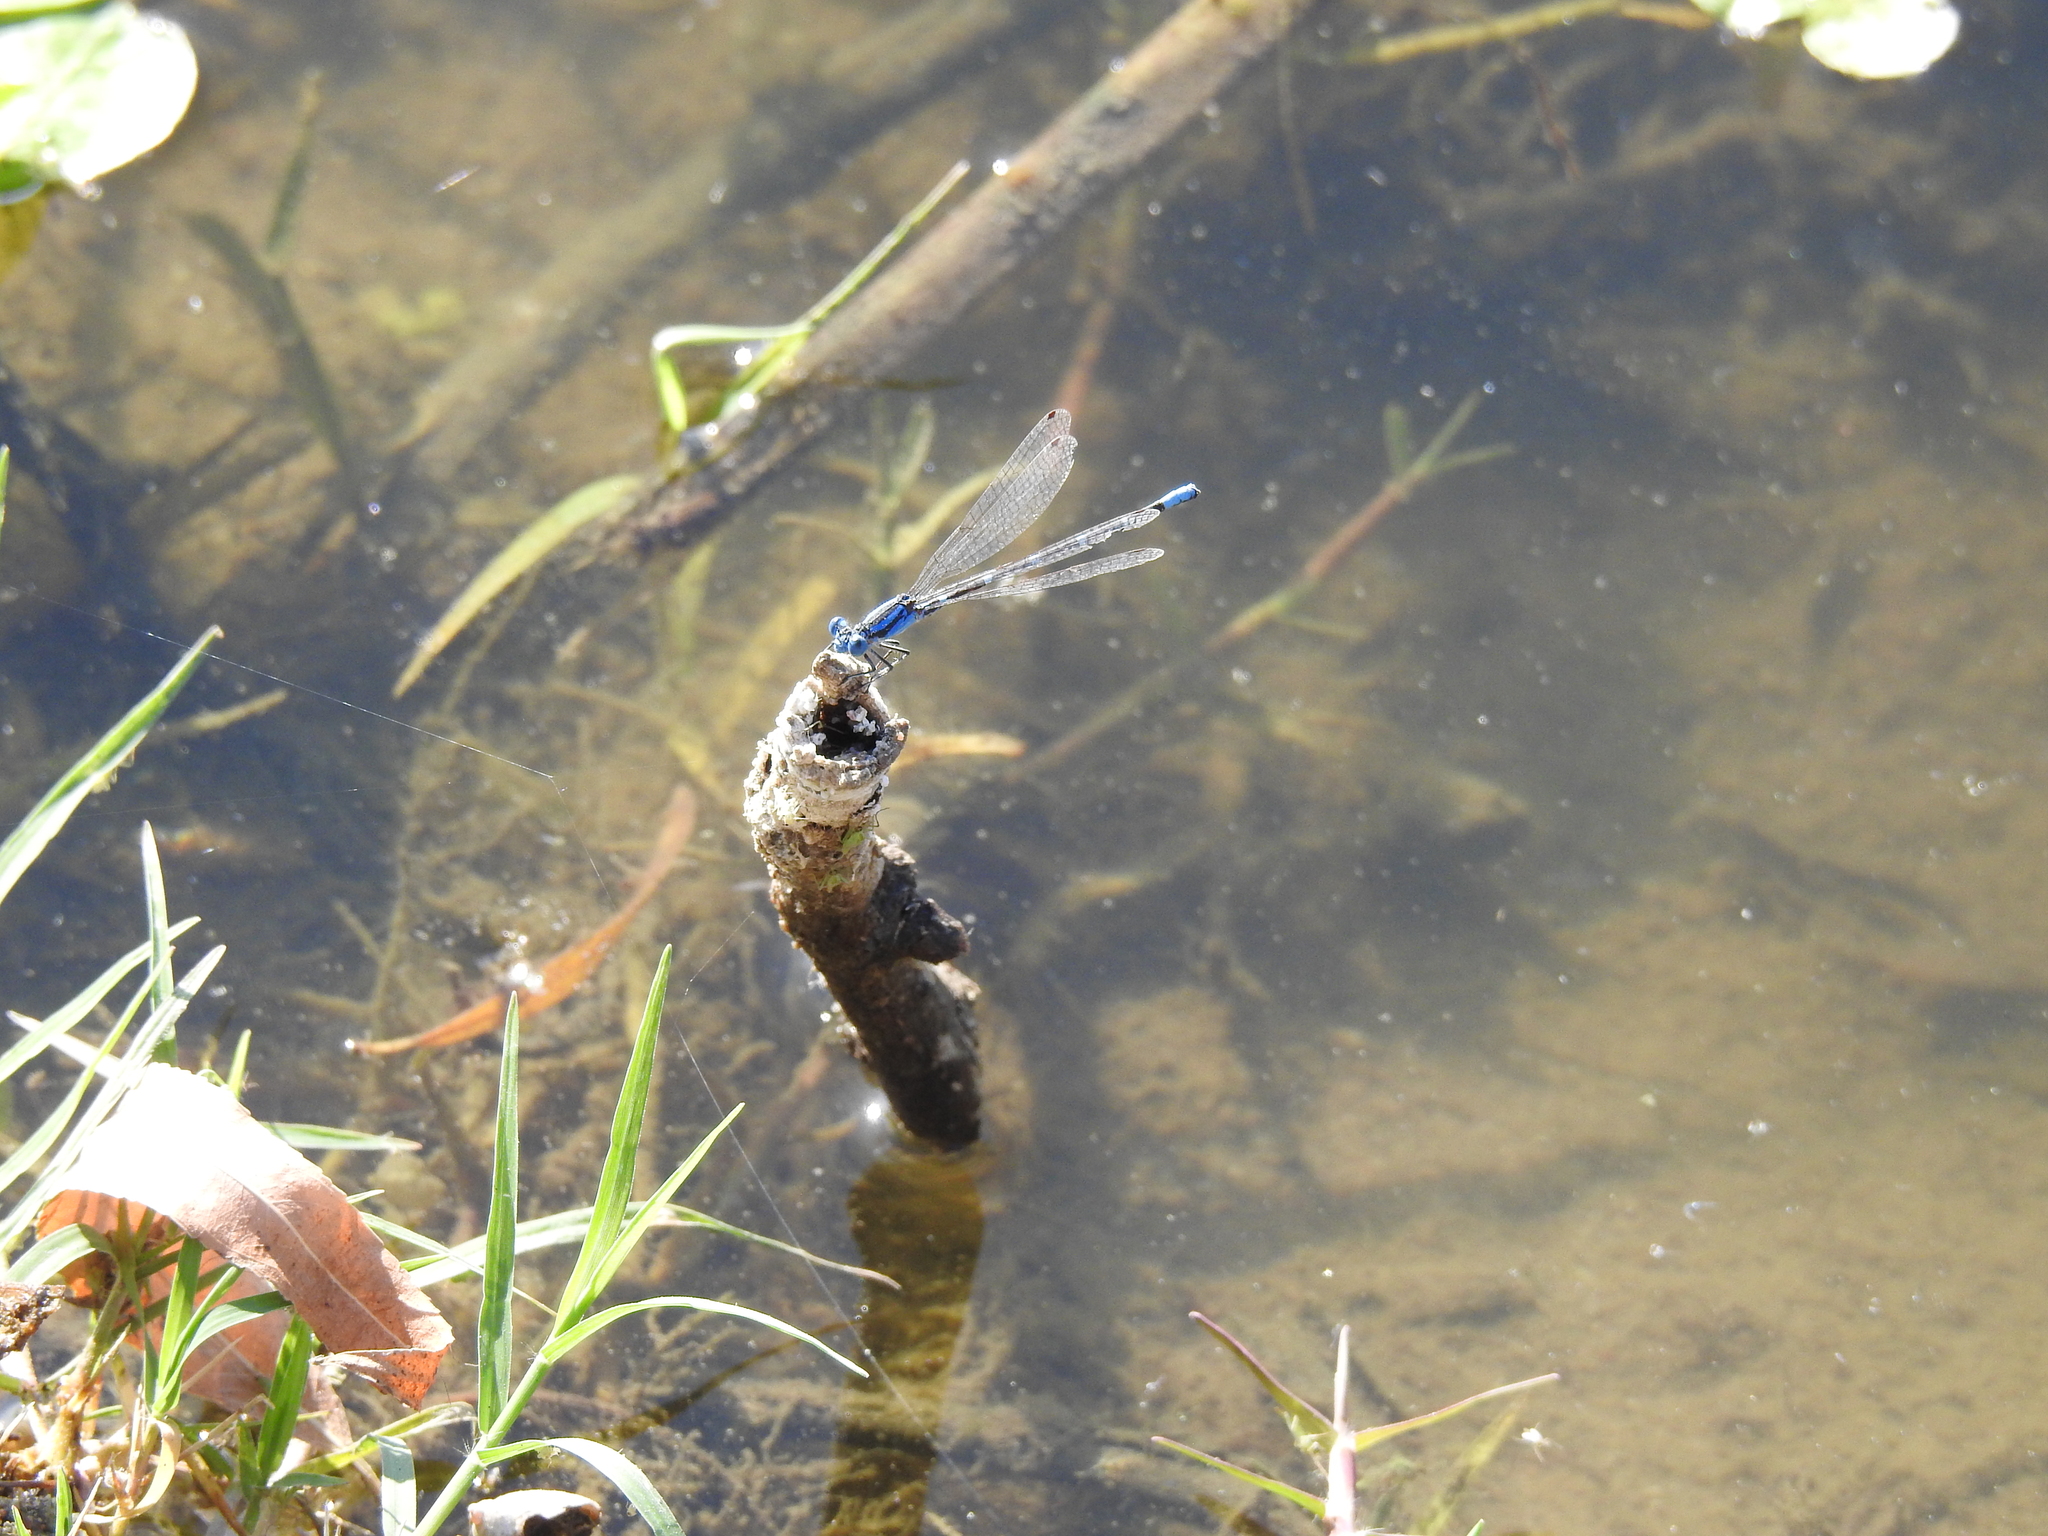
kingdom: Animalia
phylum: Arthropoda
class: Insecta
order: Odonata
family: Coenagrionidae
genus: Argia
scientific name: Argia sedula
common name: Blue-ringed dancer
